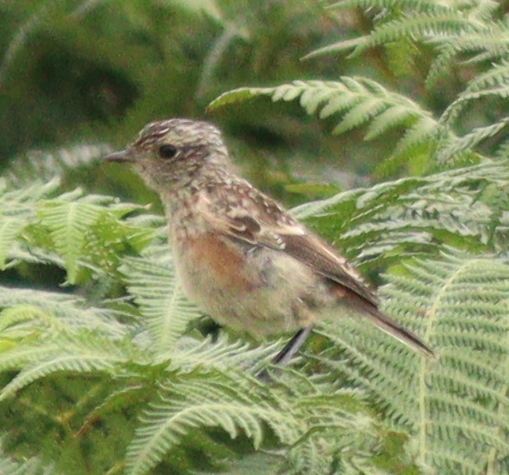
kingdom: Animalia
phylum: Chordata
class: Aves
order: Passeriformes
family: Muscicapidae
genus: Saxicola
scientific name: Saxicola rubicola
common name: European stonechat
